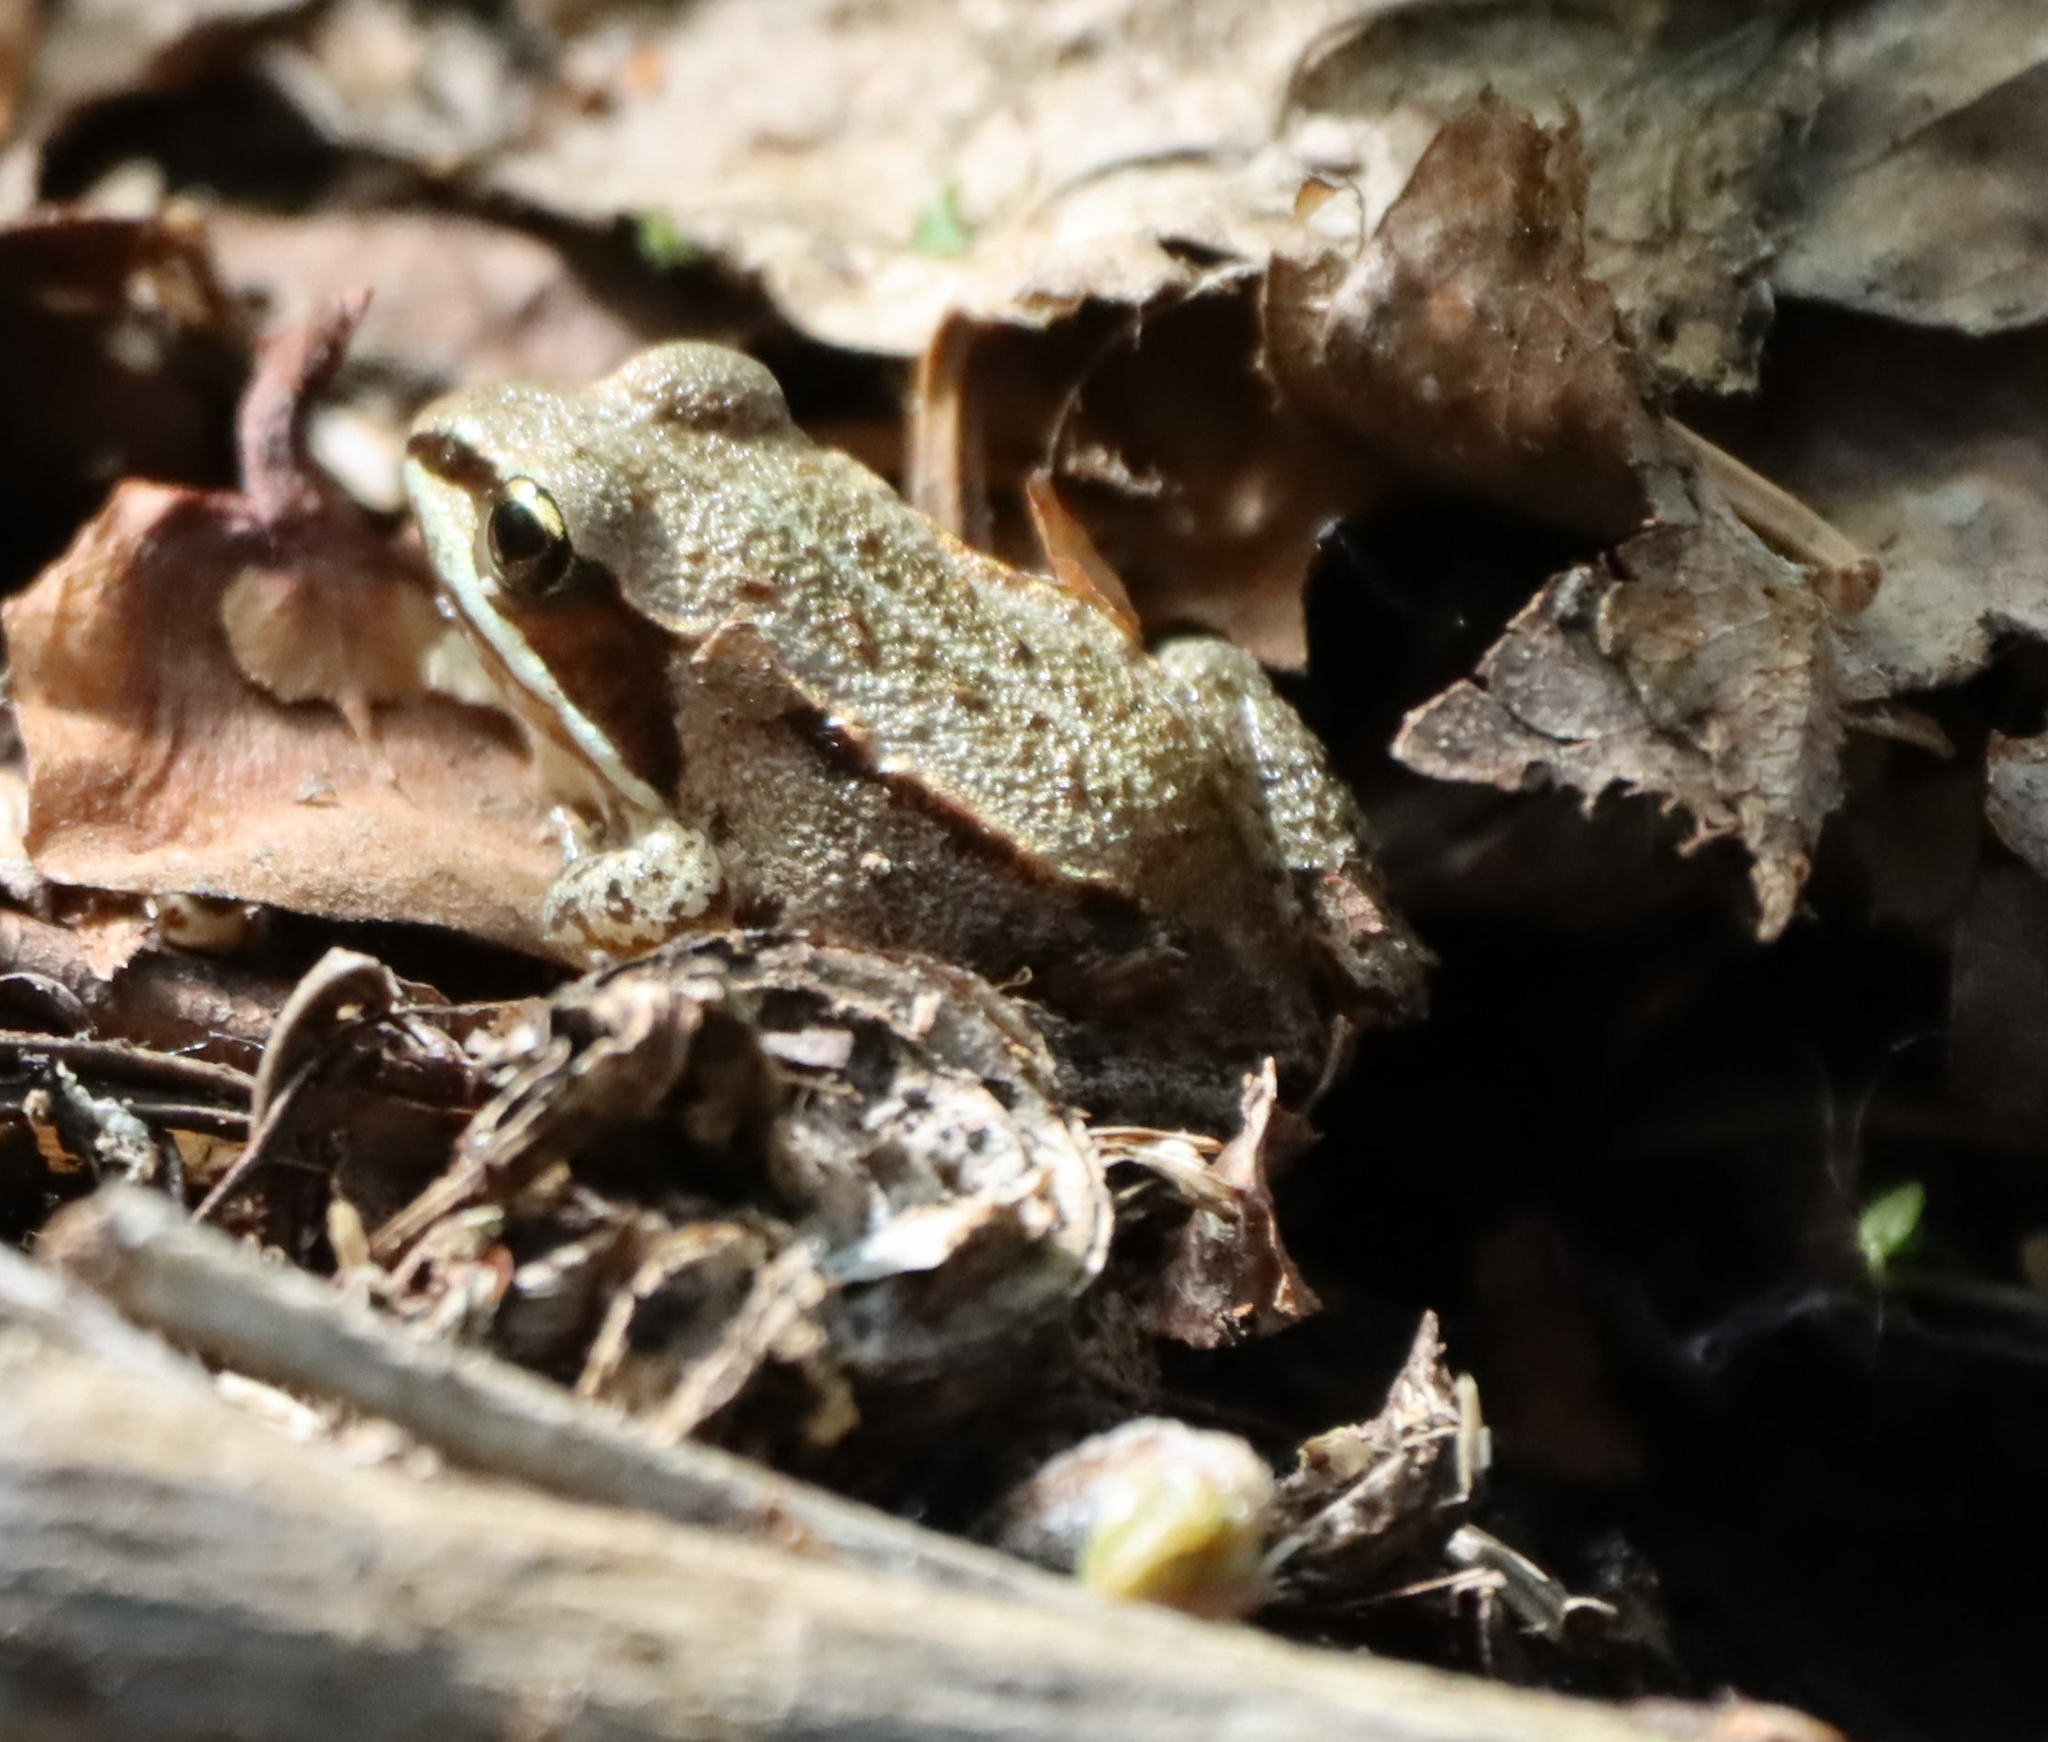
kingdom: Animalia
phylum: Chordata
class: Amphibia
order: Anura
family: Ranidae
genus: Lithobates
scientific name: Lithobates sylvaticus
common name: Wood frog
